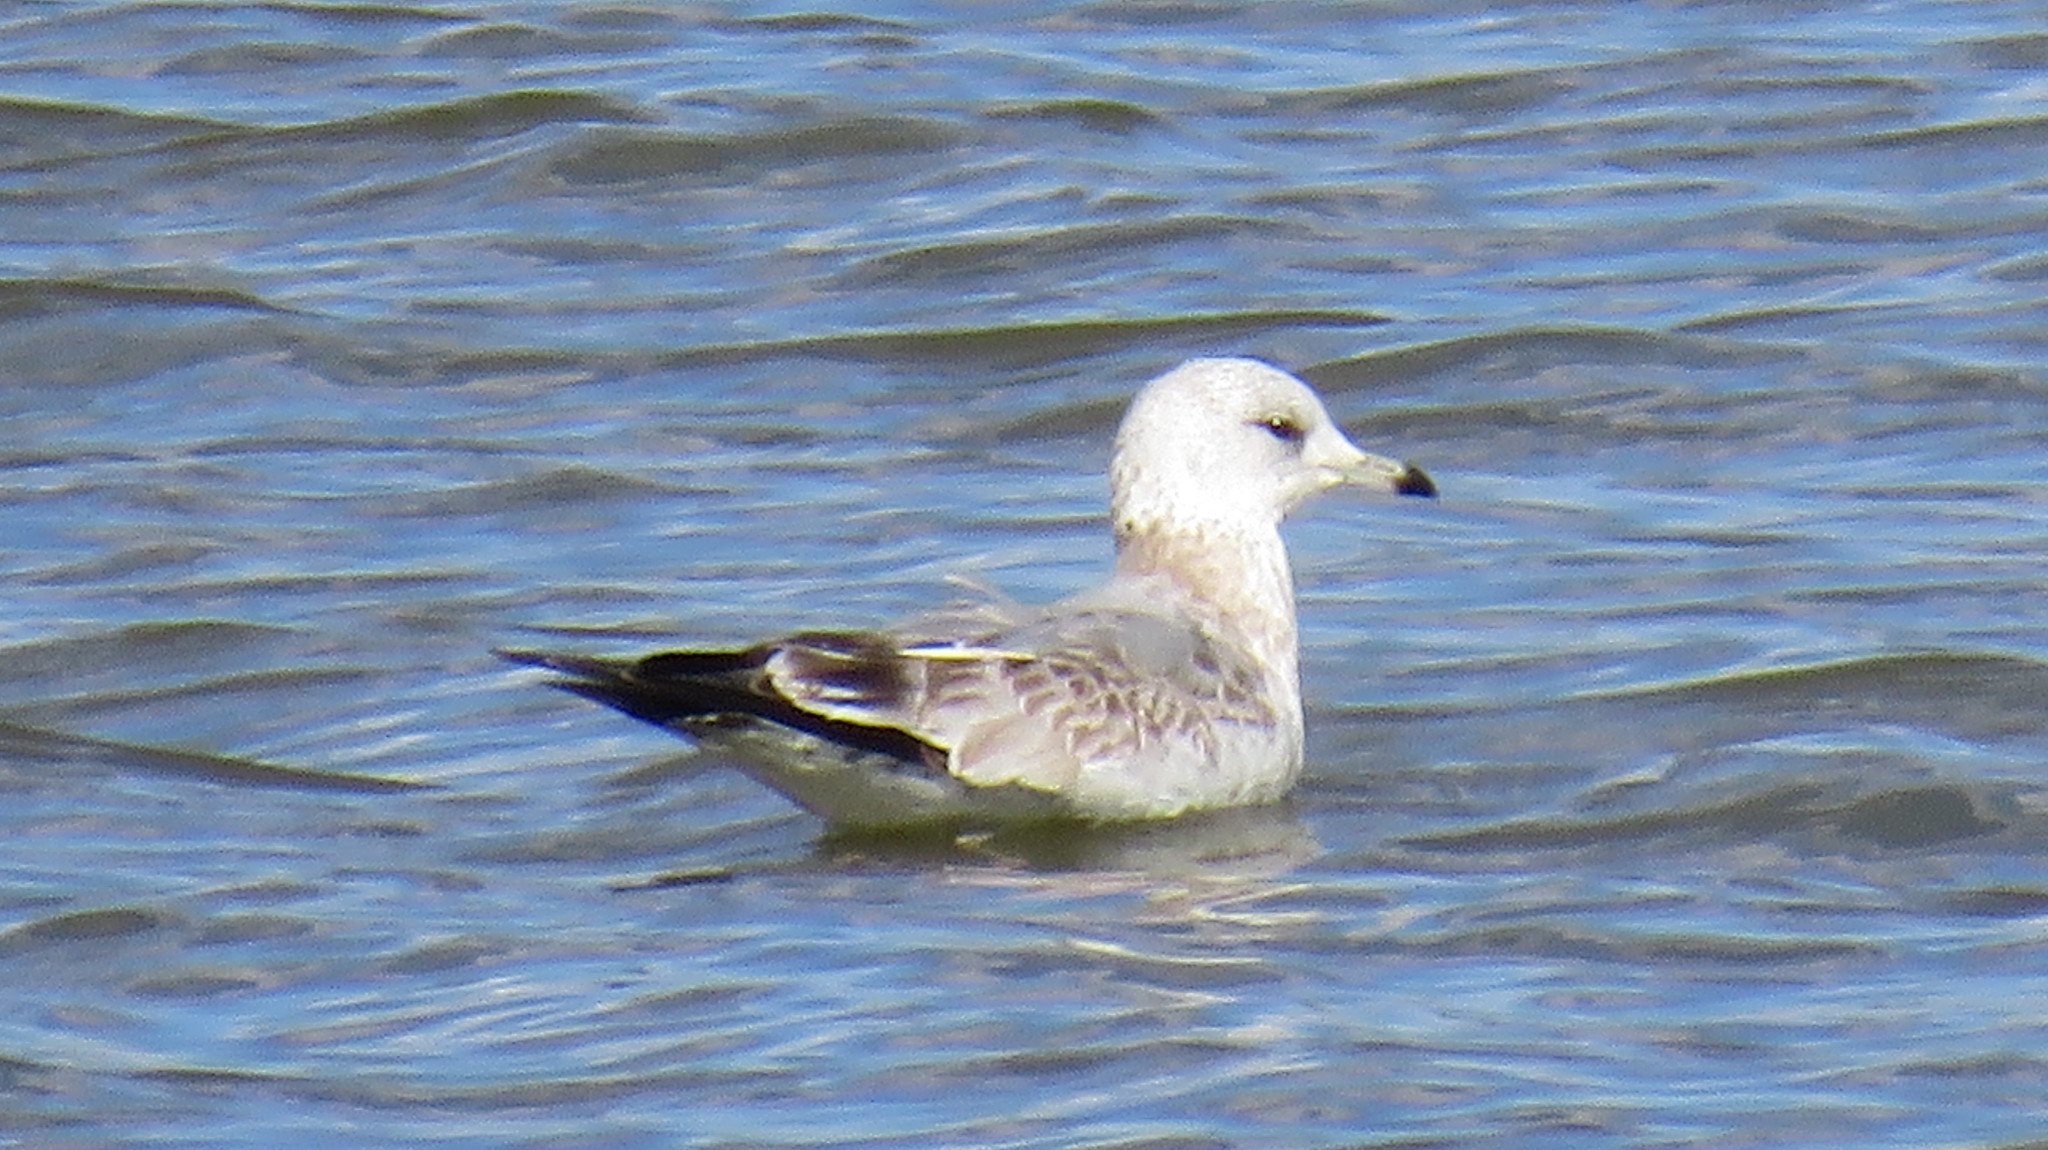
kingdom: Animalia
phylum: Chordata
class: Aves
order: Charadriiformes
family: Laridae
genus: Larus
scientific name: Larus canus
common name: Mew gull
